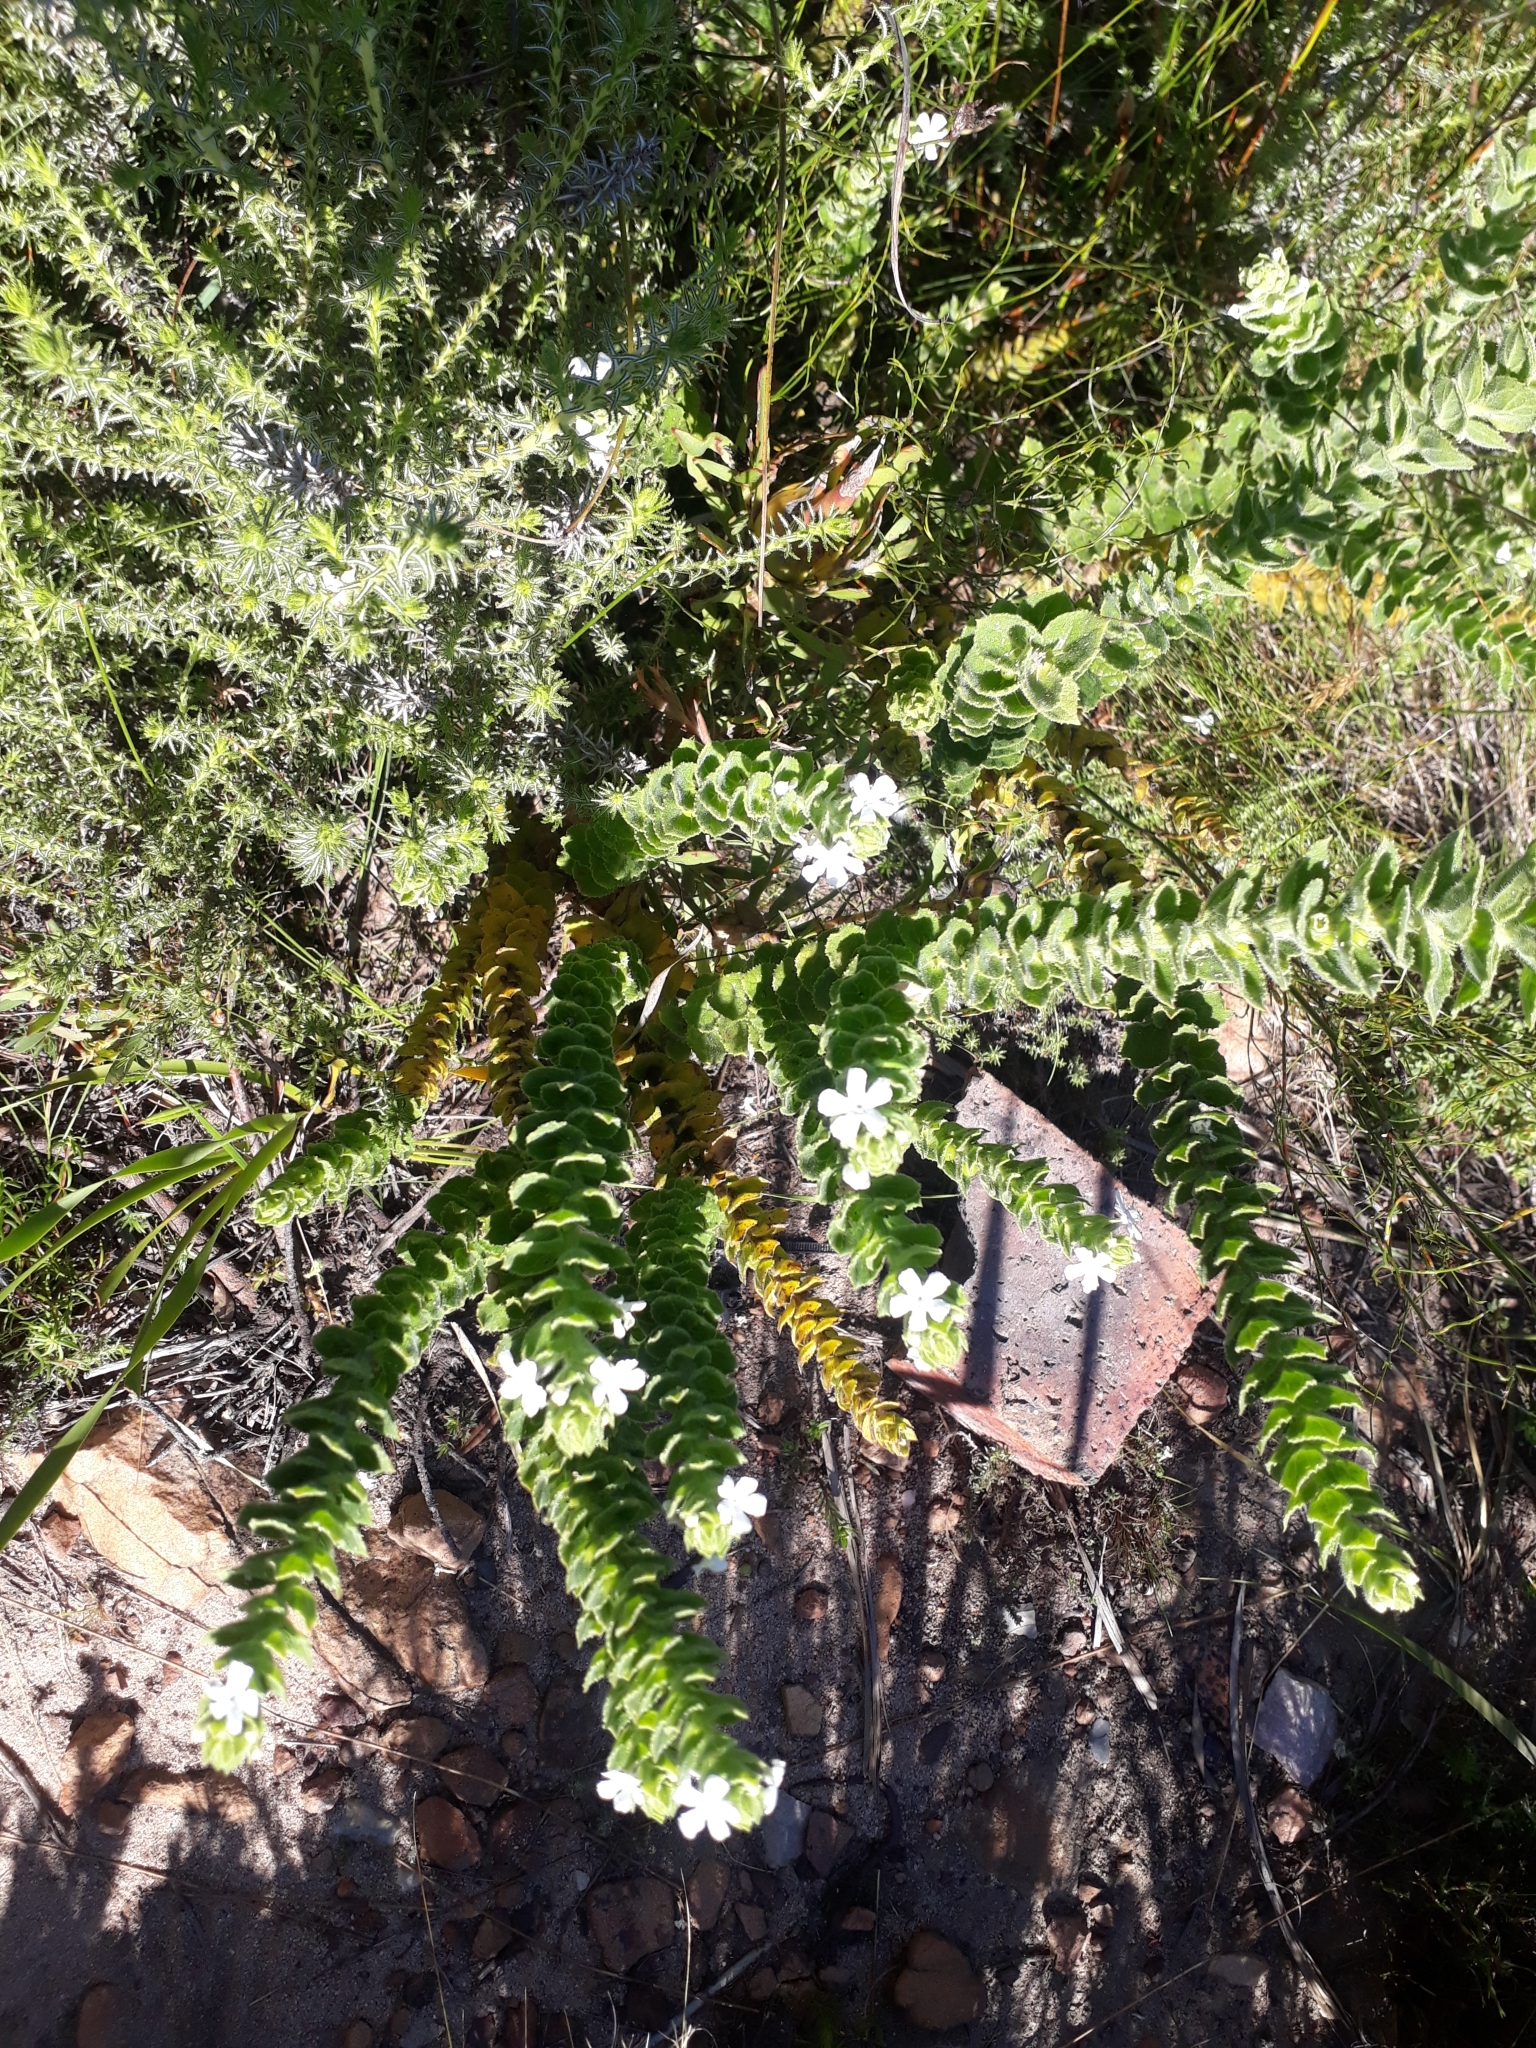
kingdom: Plantae
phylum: Tracheophyta
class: Magnoliopsida
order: Lamiales
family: Scrophulariaceae
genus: Oftia
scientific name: Oftia africana
